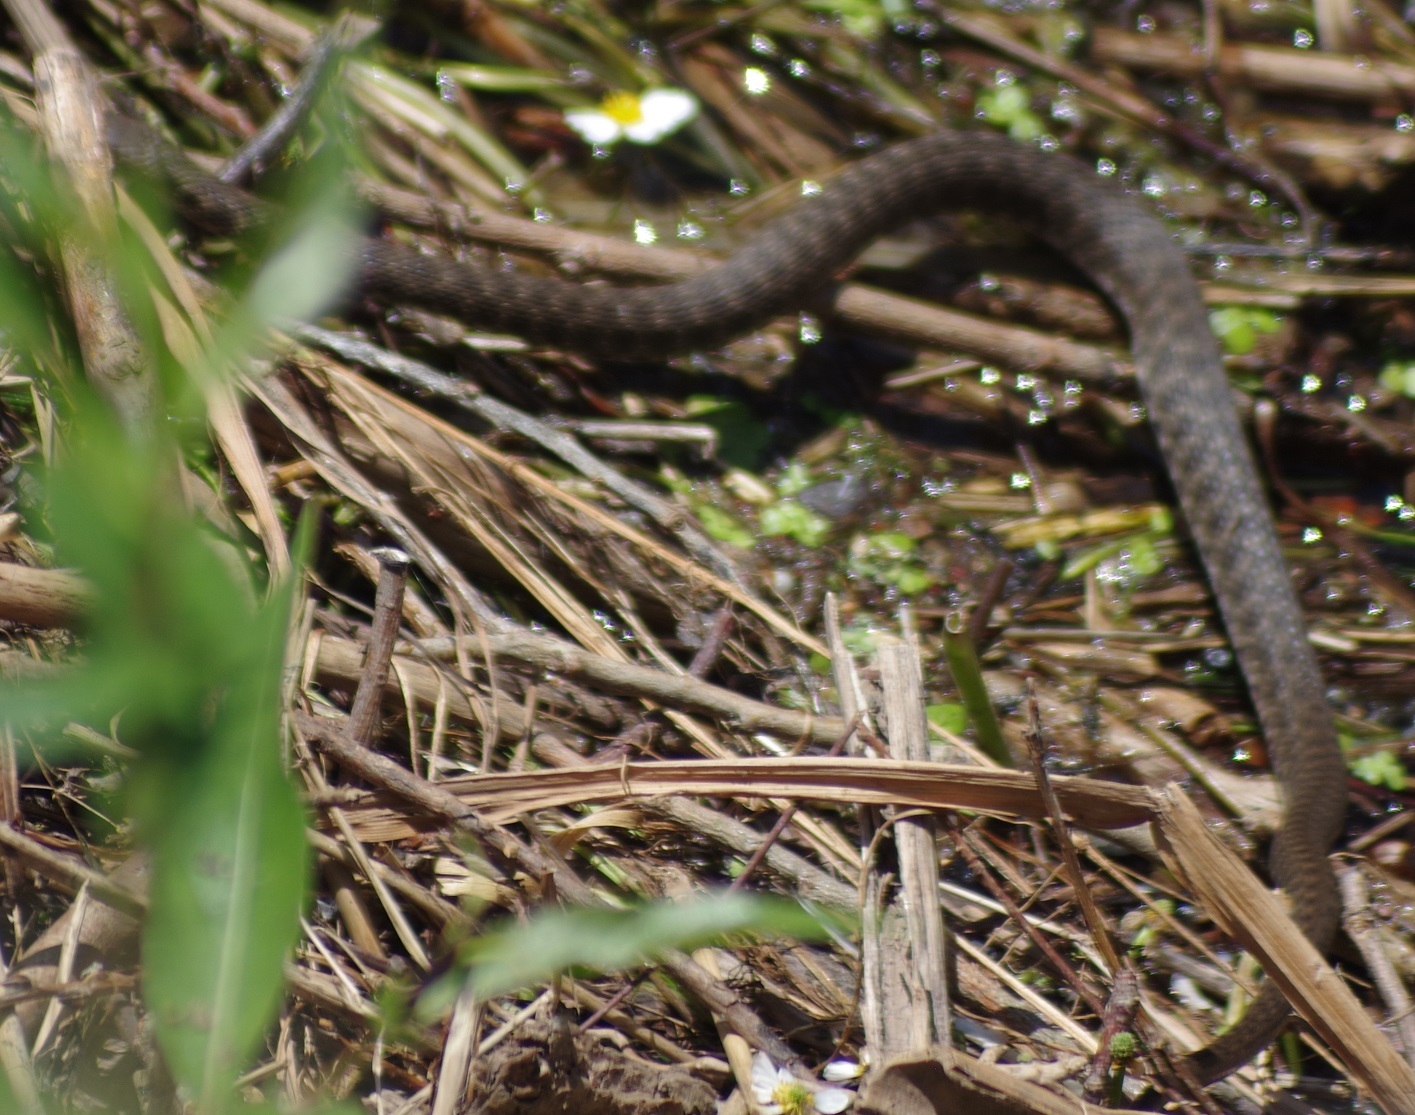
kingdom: Animalia
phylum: Chordata
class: Squamata
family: Colubridae
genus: Natrix
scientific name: Natrix tessellata
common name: Dice snake
